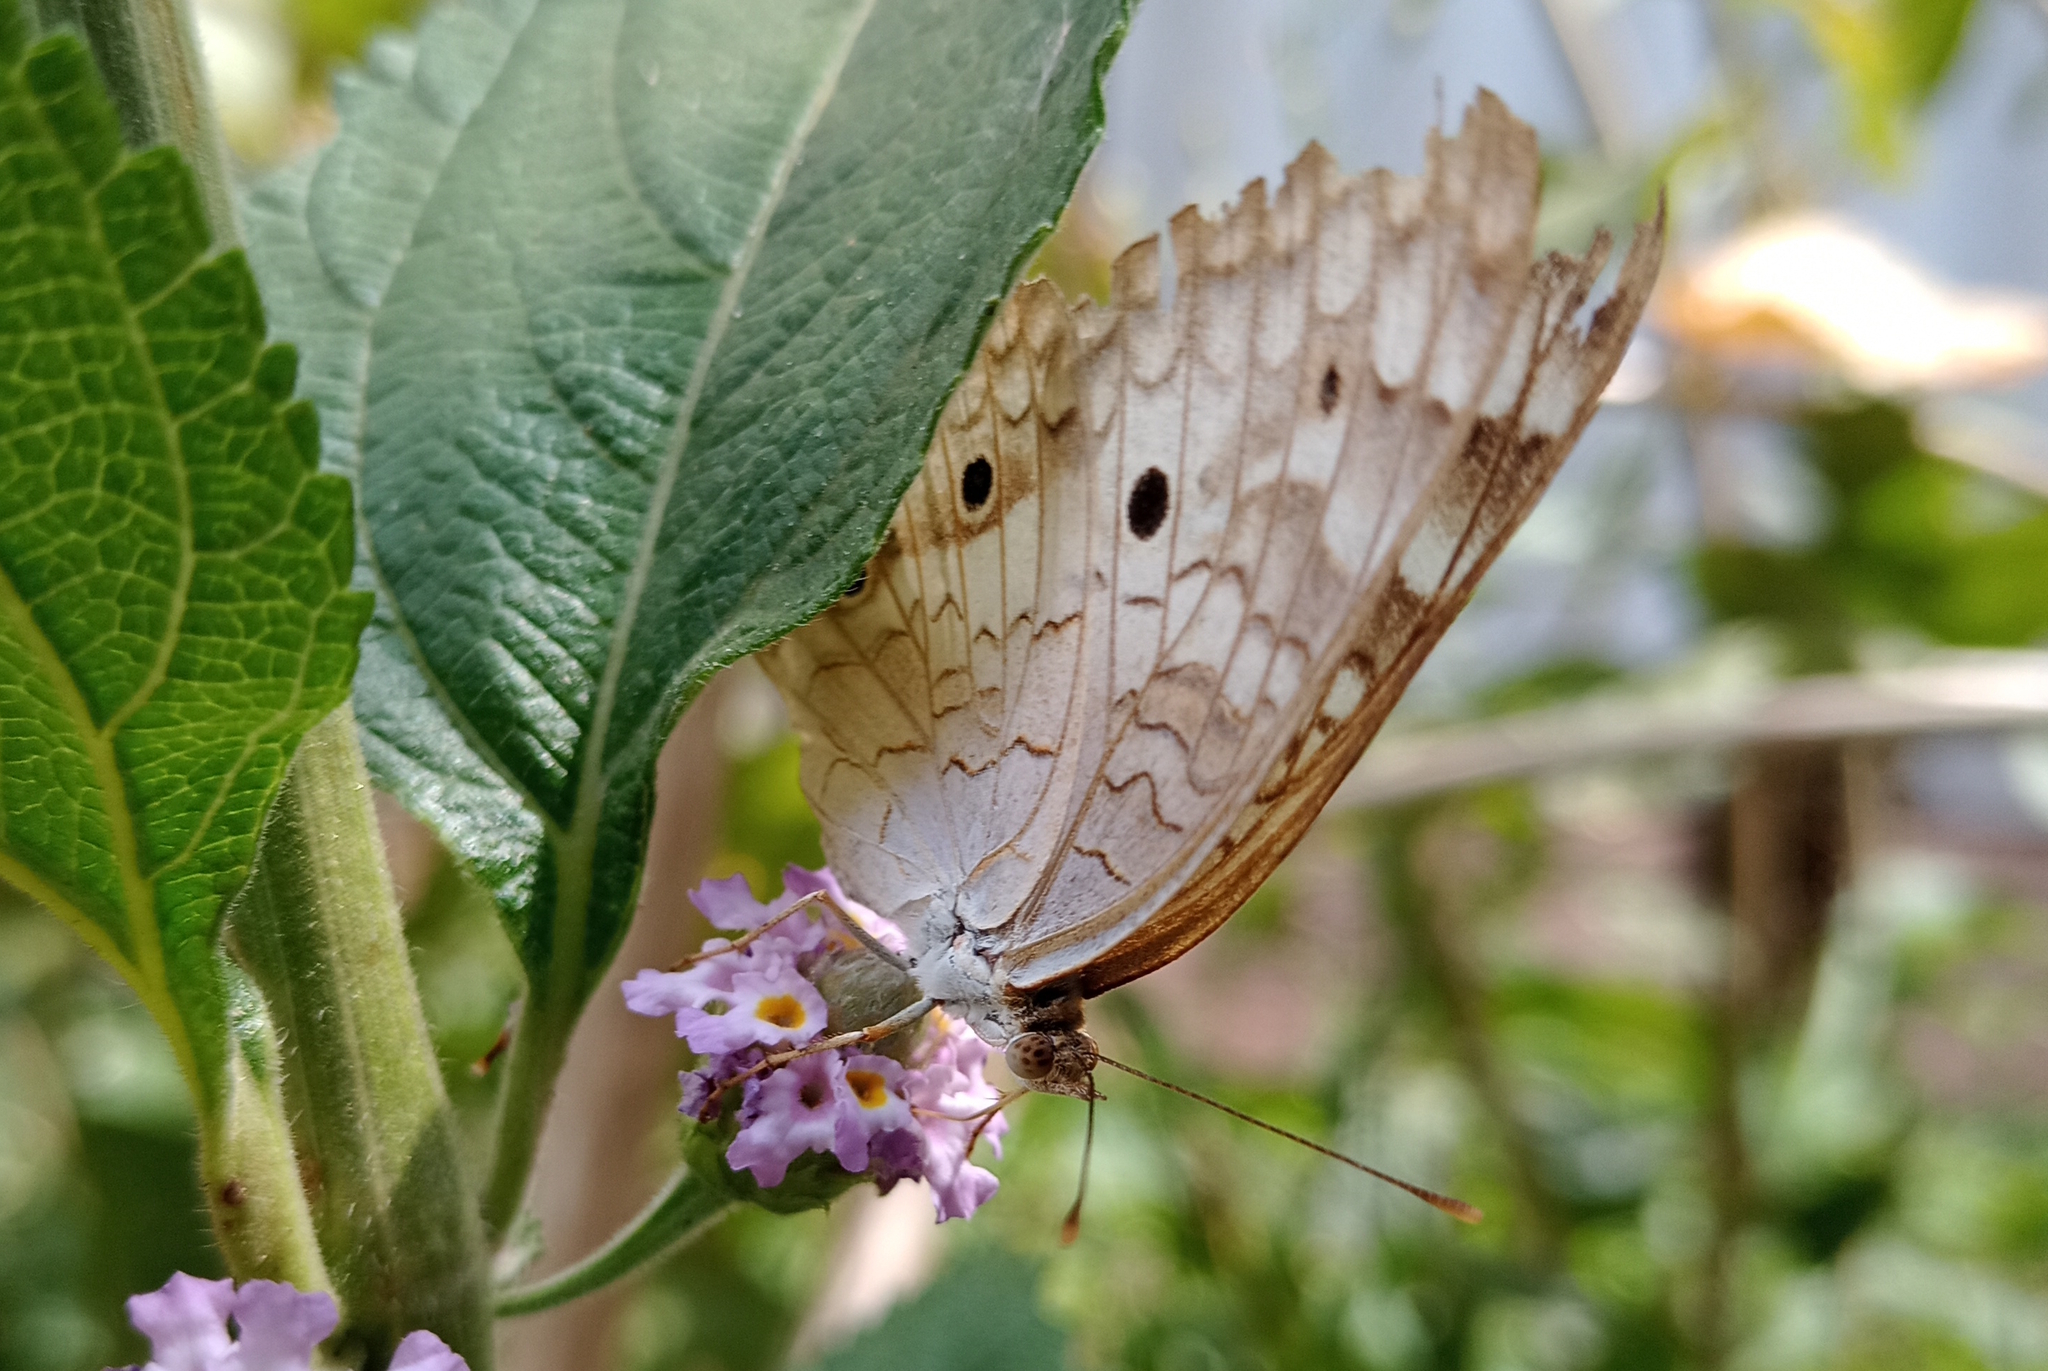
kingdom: Animalia
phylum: Arthropoda
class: Insecta
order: Lepidoptera
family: Nymphalidae
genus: Anartia
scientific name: Anartia jatrophae
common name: White peacock
